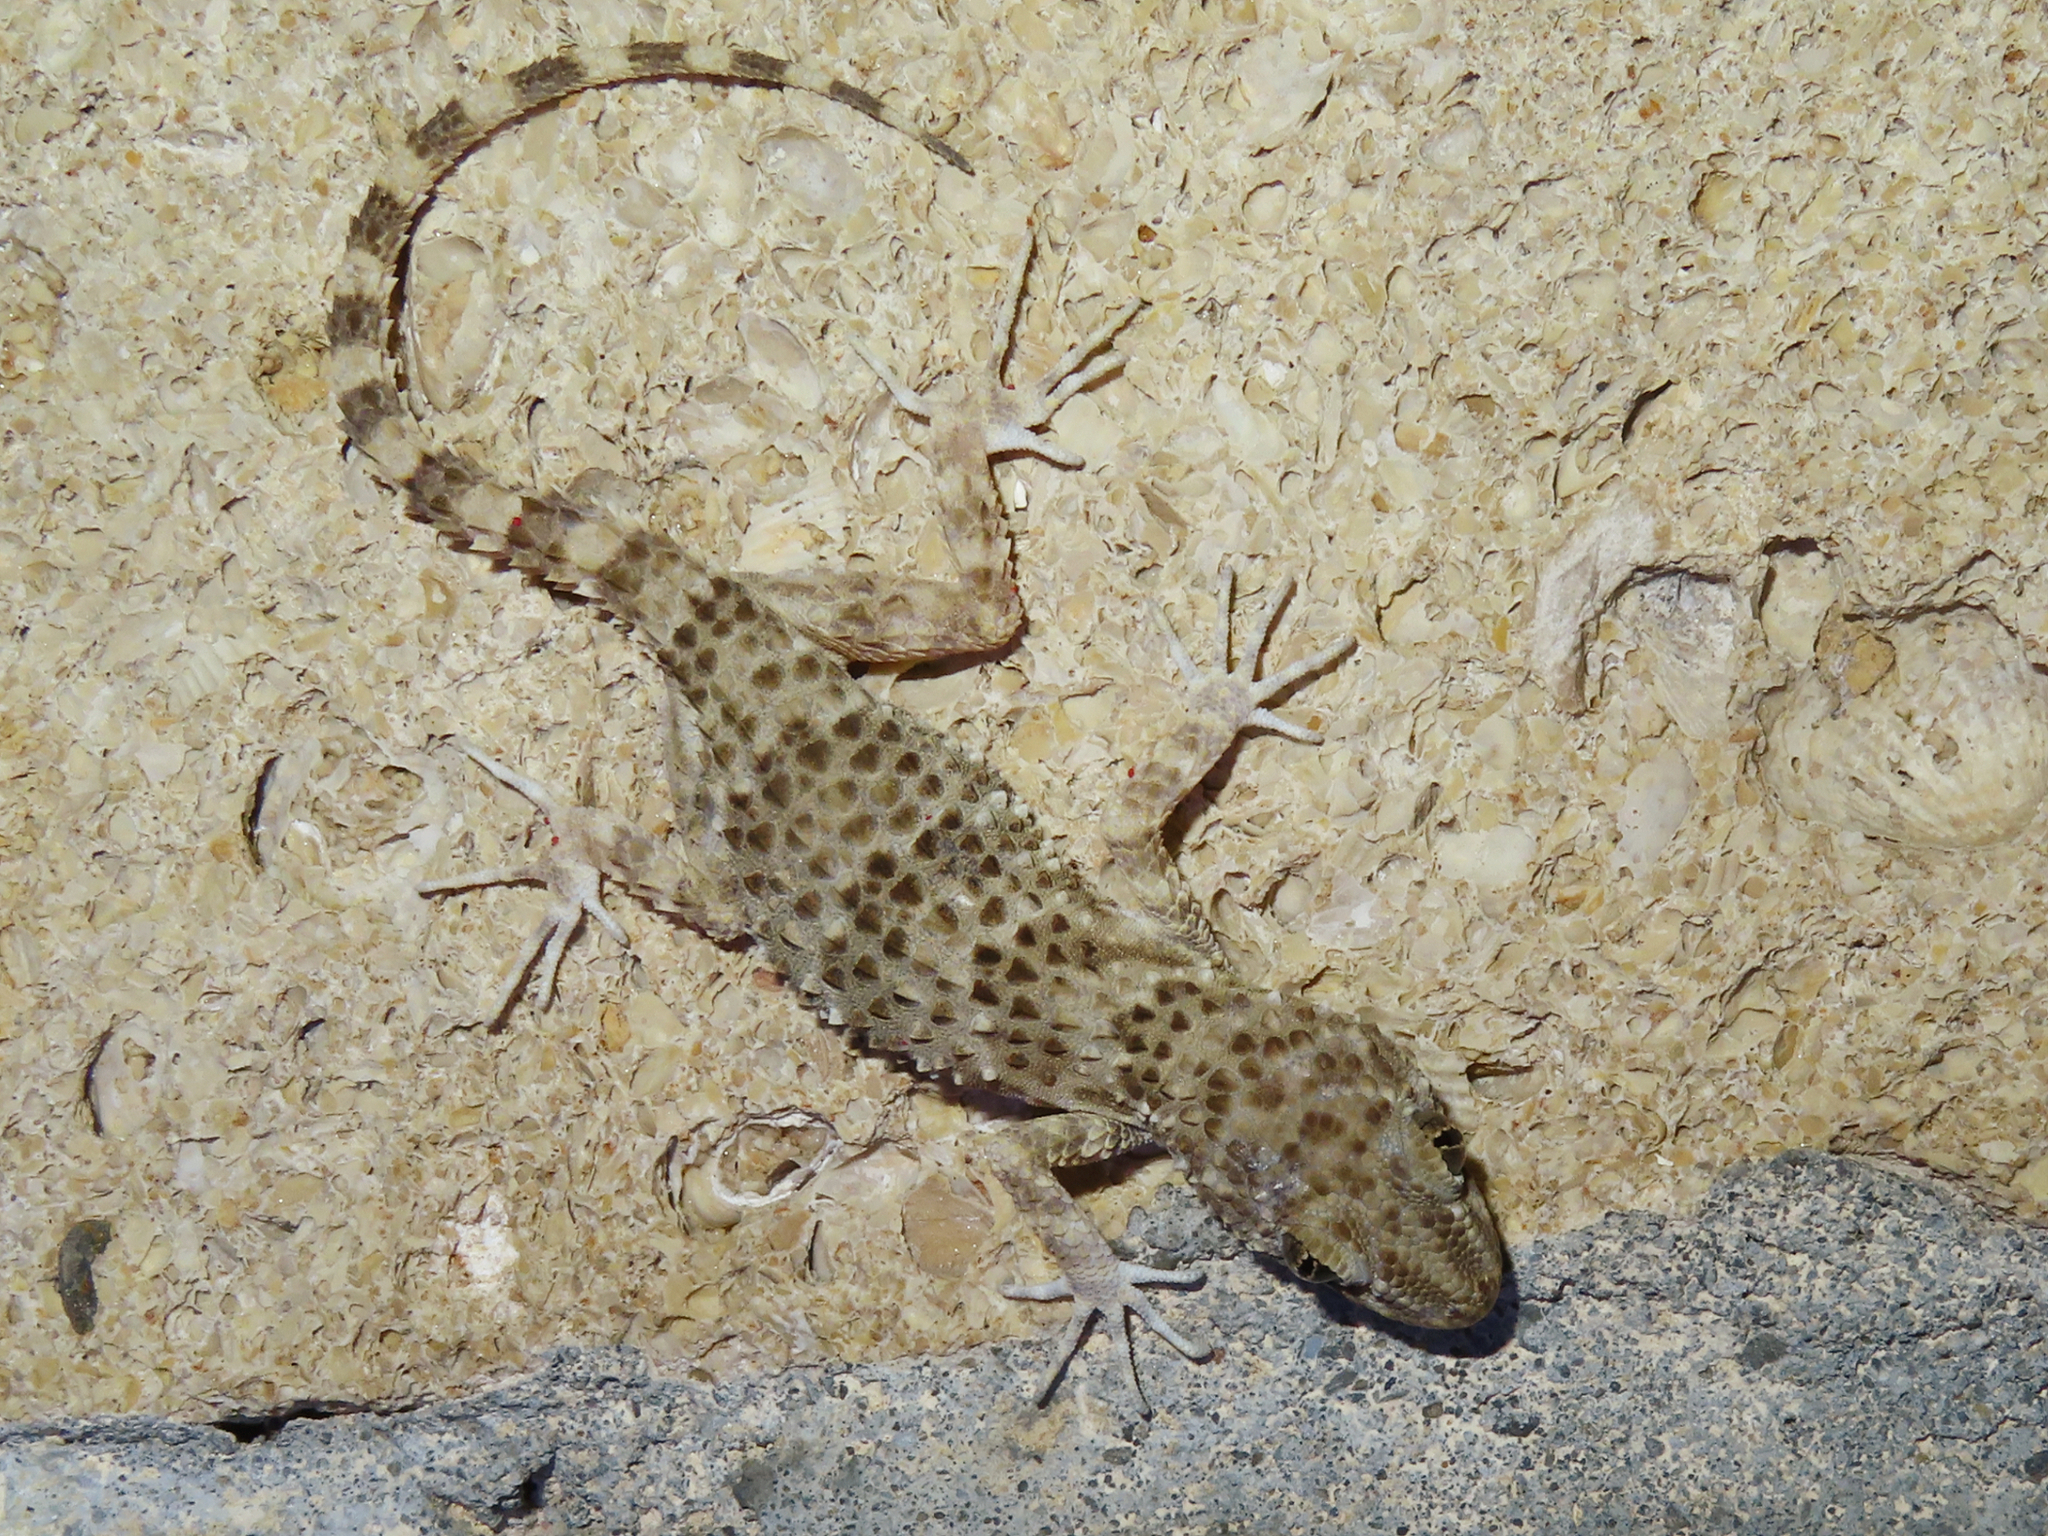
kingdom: Animalia
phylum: Chordata
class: Squamata
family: Gekkonidae
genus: Tenuidactylus
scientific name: Tenuidactylus caspius
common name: Caspian bent-toed gecko
